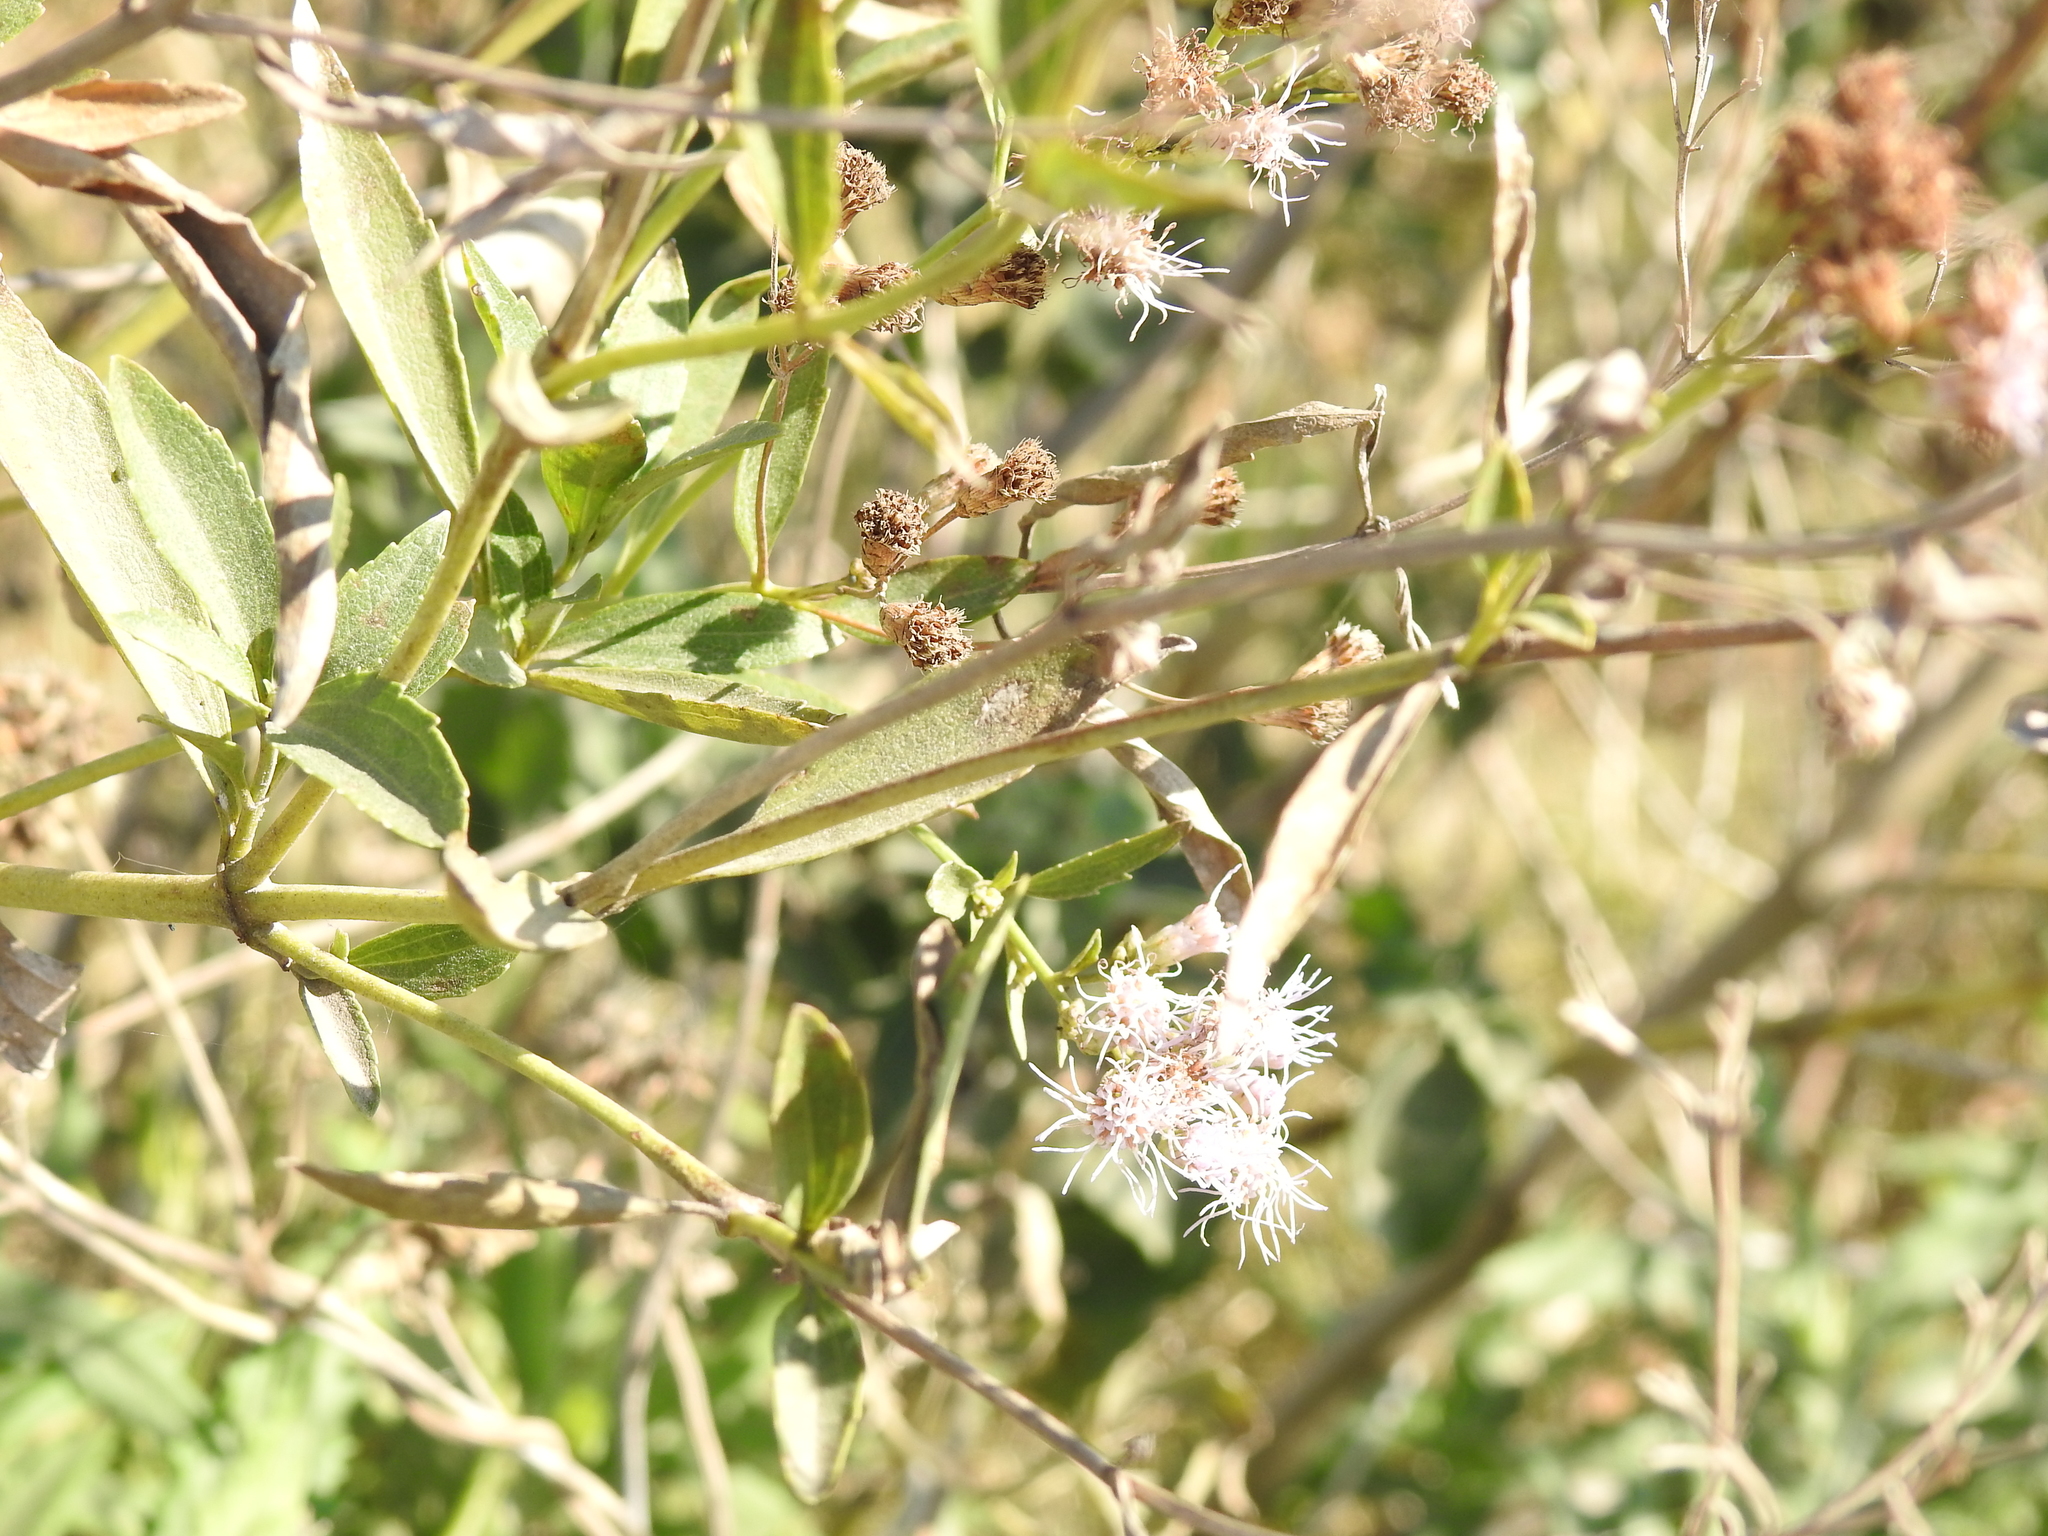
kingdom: Plantae
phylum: Tracheophyta
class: Magnoliopsida
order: Asterales
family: Asteraceae
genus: Chromolaena
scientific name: Chromolaena ivifolia
